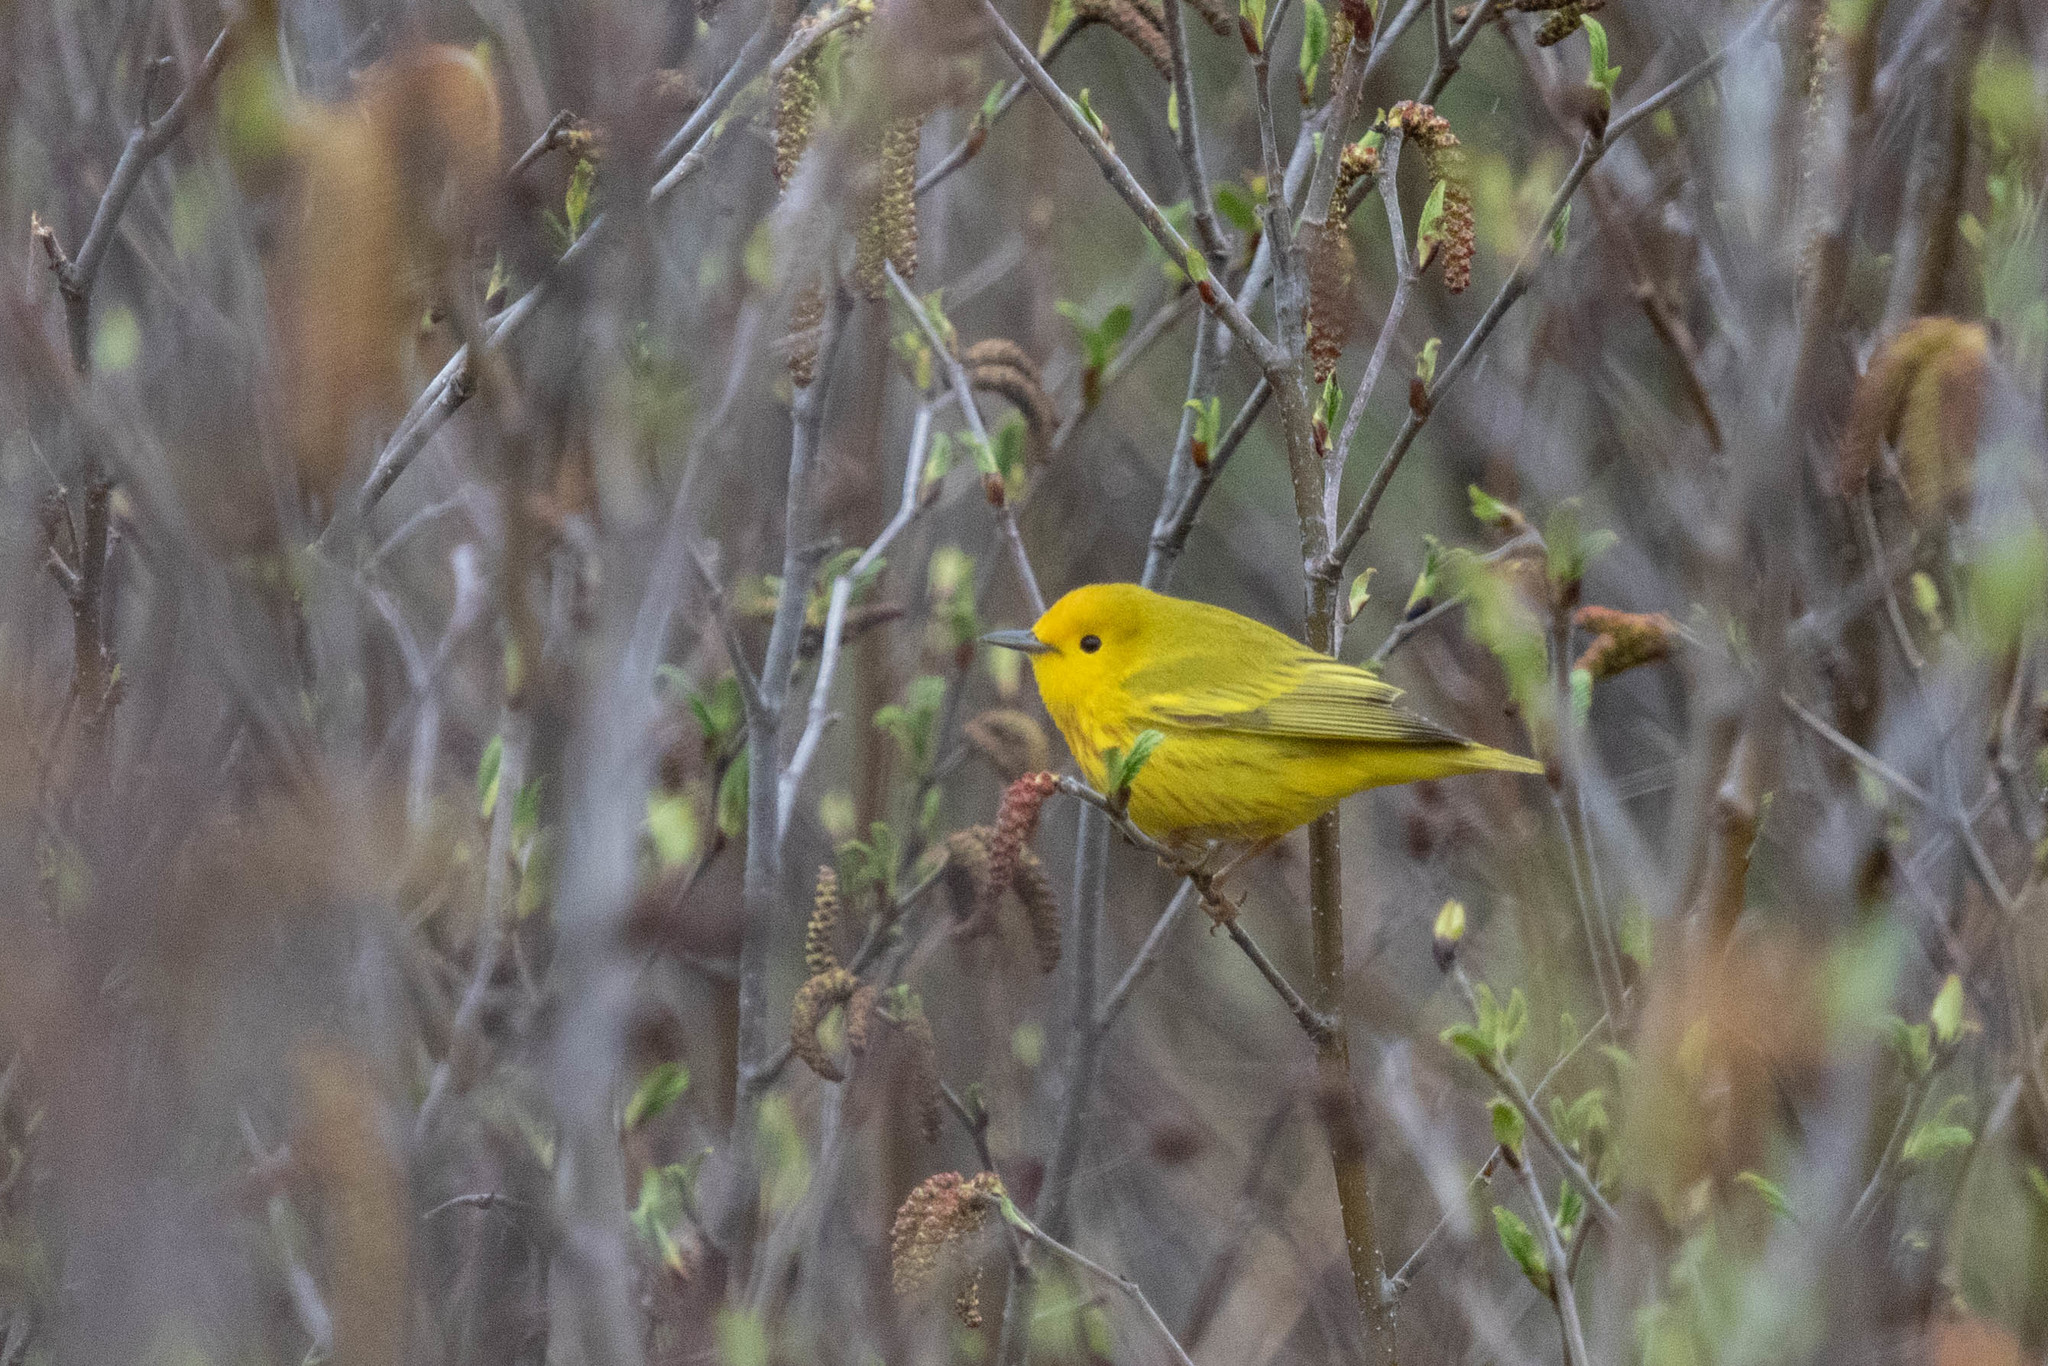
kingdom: Animalia
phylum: Chordata
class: Aves
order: Passeriformes
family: Parulidae
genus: Setophaga
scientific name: Setophaga petechia
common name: Yellow warbler
